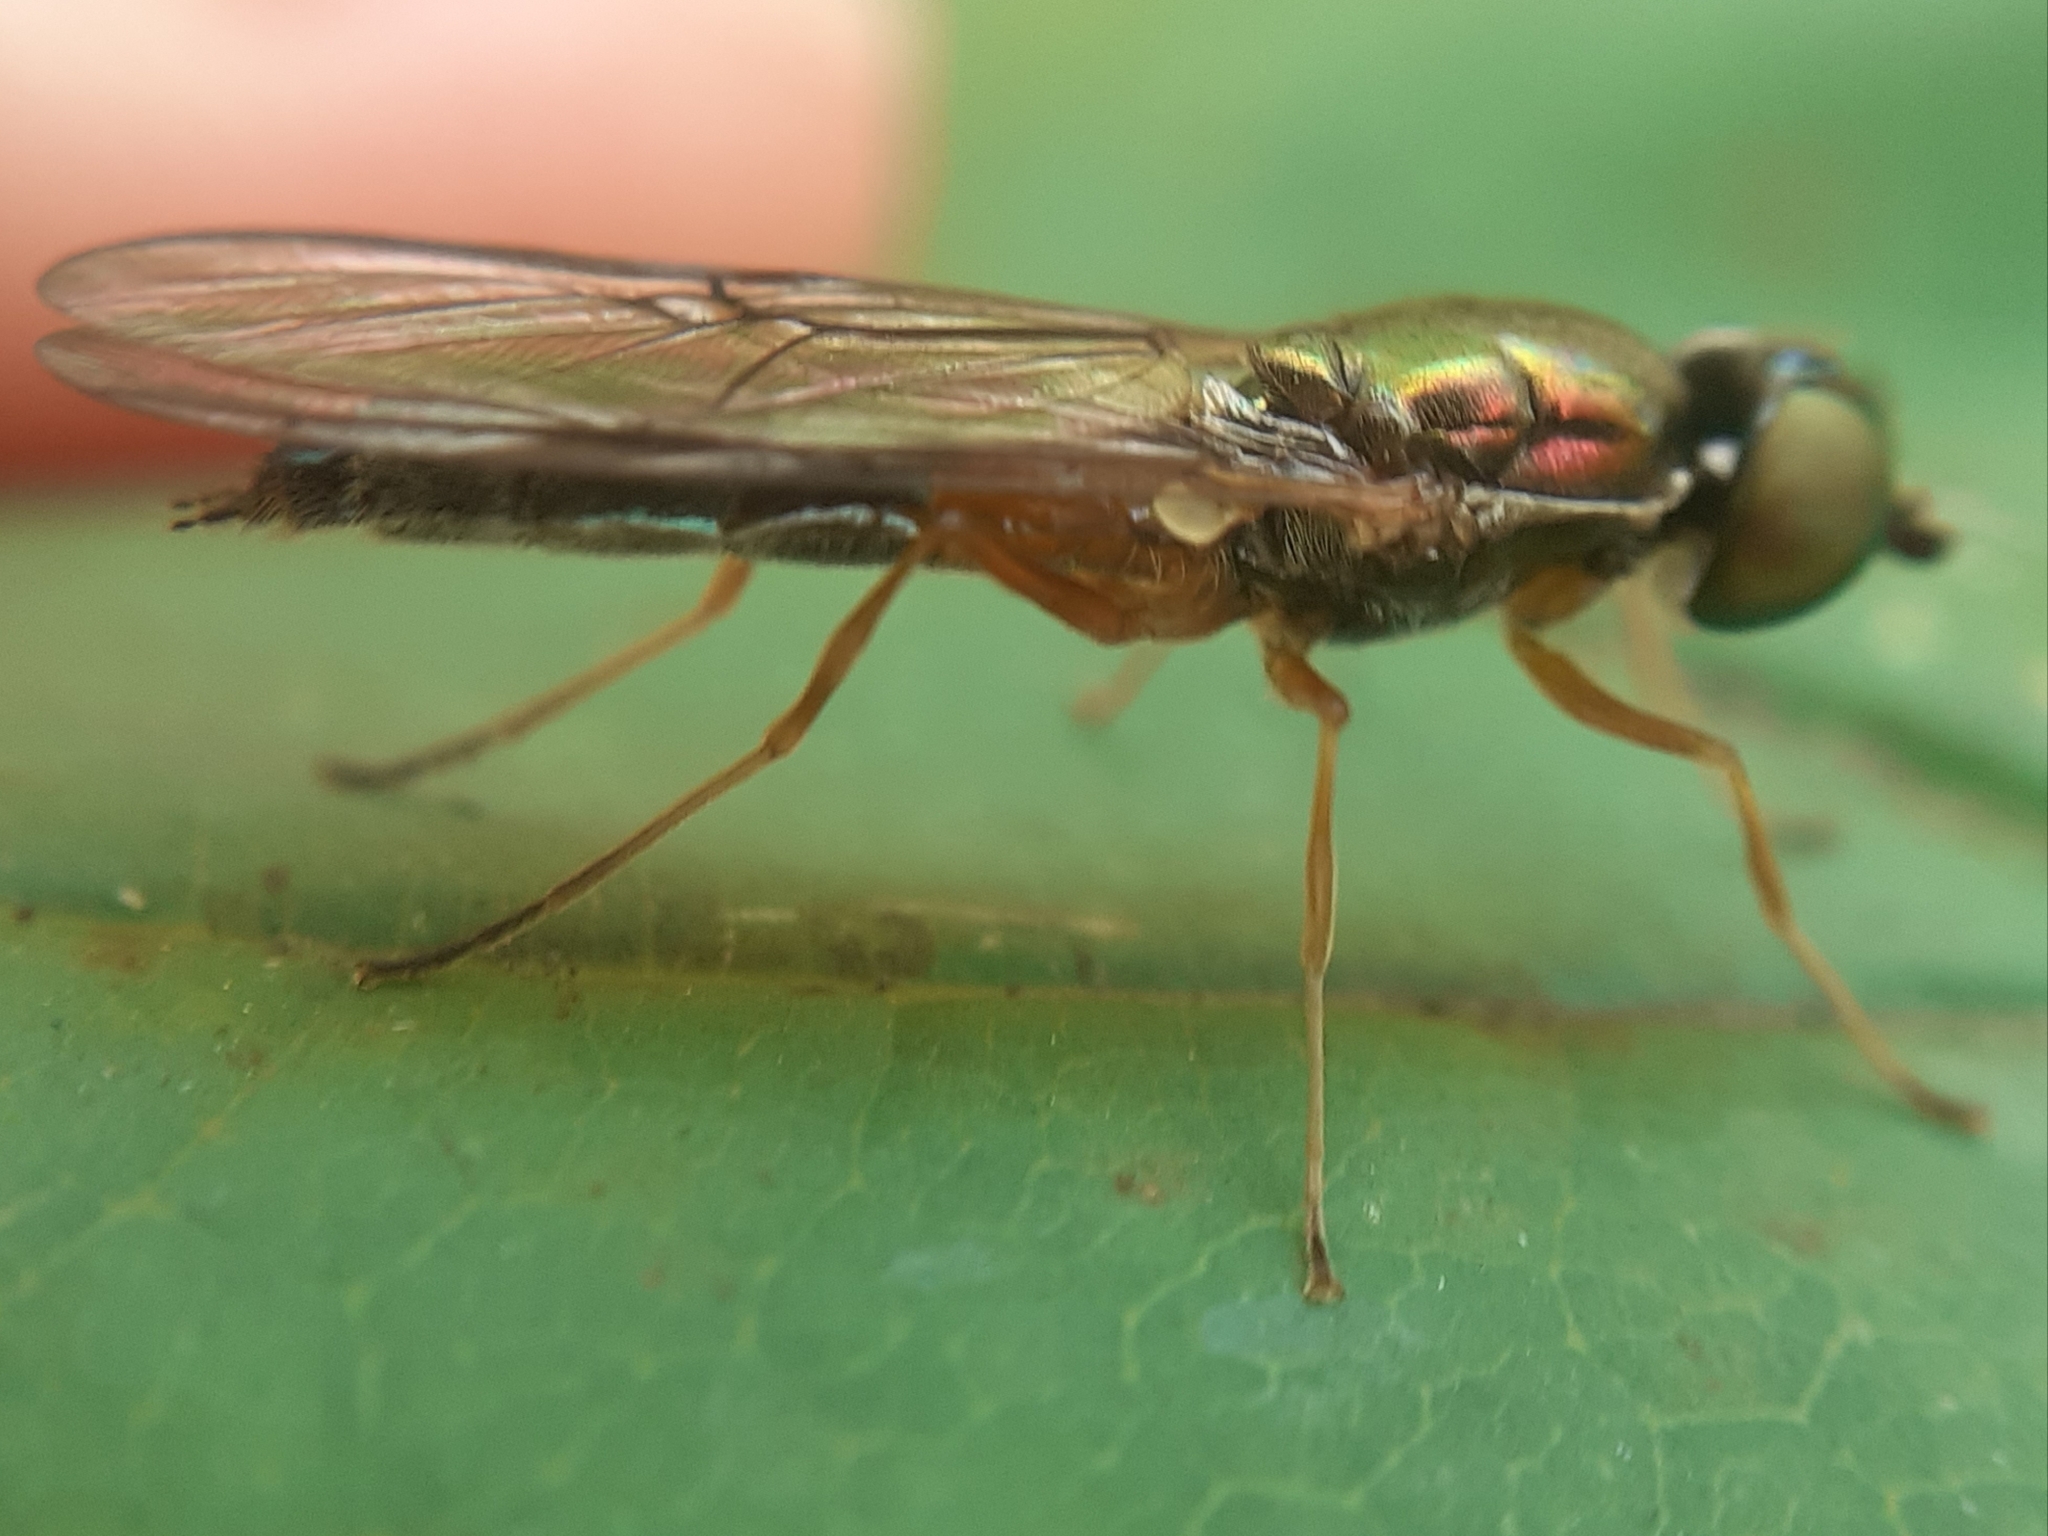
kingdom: Animalia
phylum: Arthropoda
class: Insecta
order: Diptera
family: Stratiomyidae
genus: Sargus
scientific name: Sargus bipunctatus
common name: Twin-spot centurion
